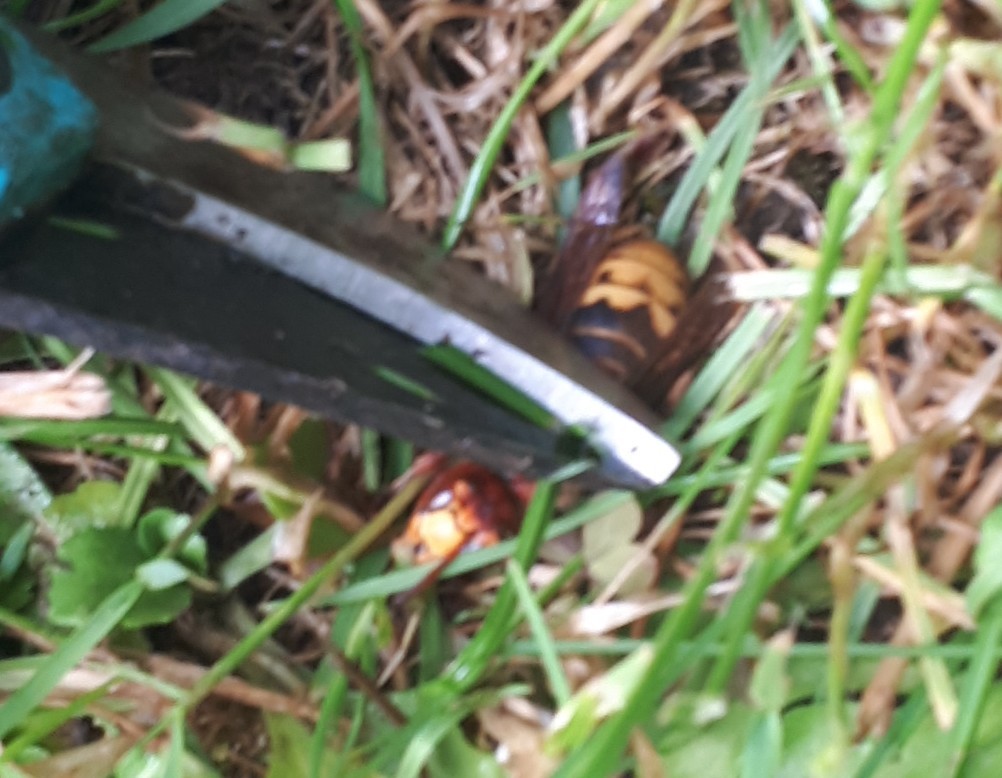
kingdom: Animalia
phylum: Arthropoda
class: Insecta
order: Hymenoptera
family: Vespidae
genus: Vespa
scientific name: Vespa crabro
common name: Hornet
